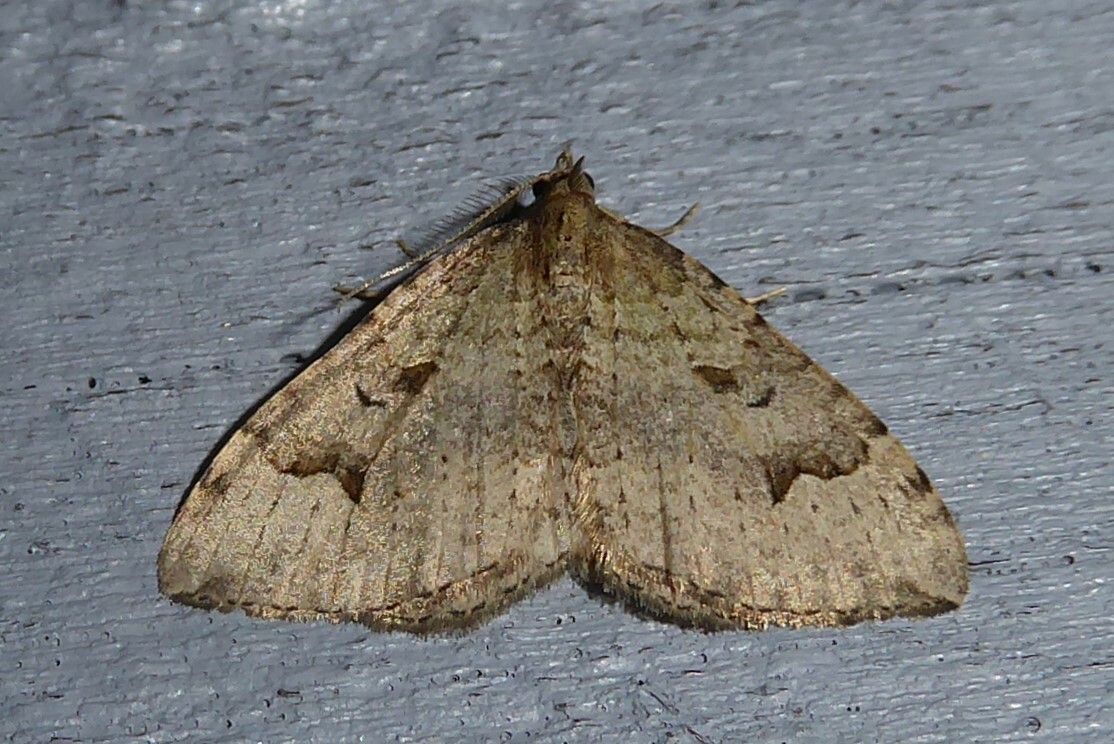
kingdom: Animalia
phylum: Arthropoda
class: Insecta
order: Lepidoptera
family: Geometridae
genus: Epyaxa
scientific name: Epyaxa rosearia
